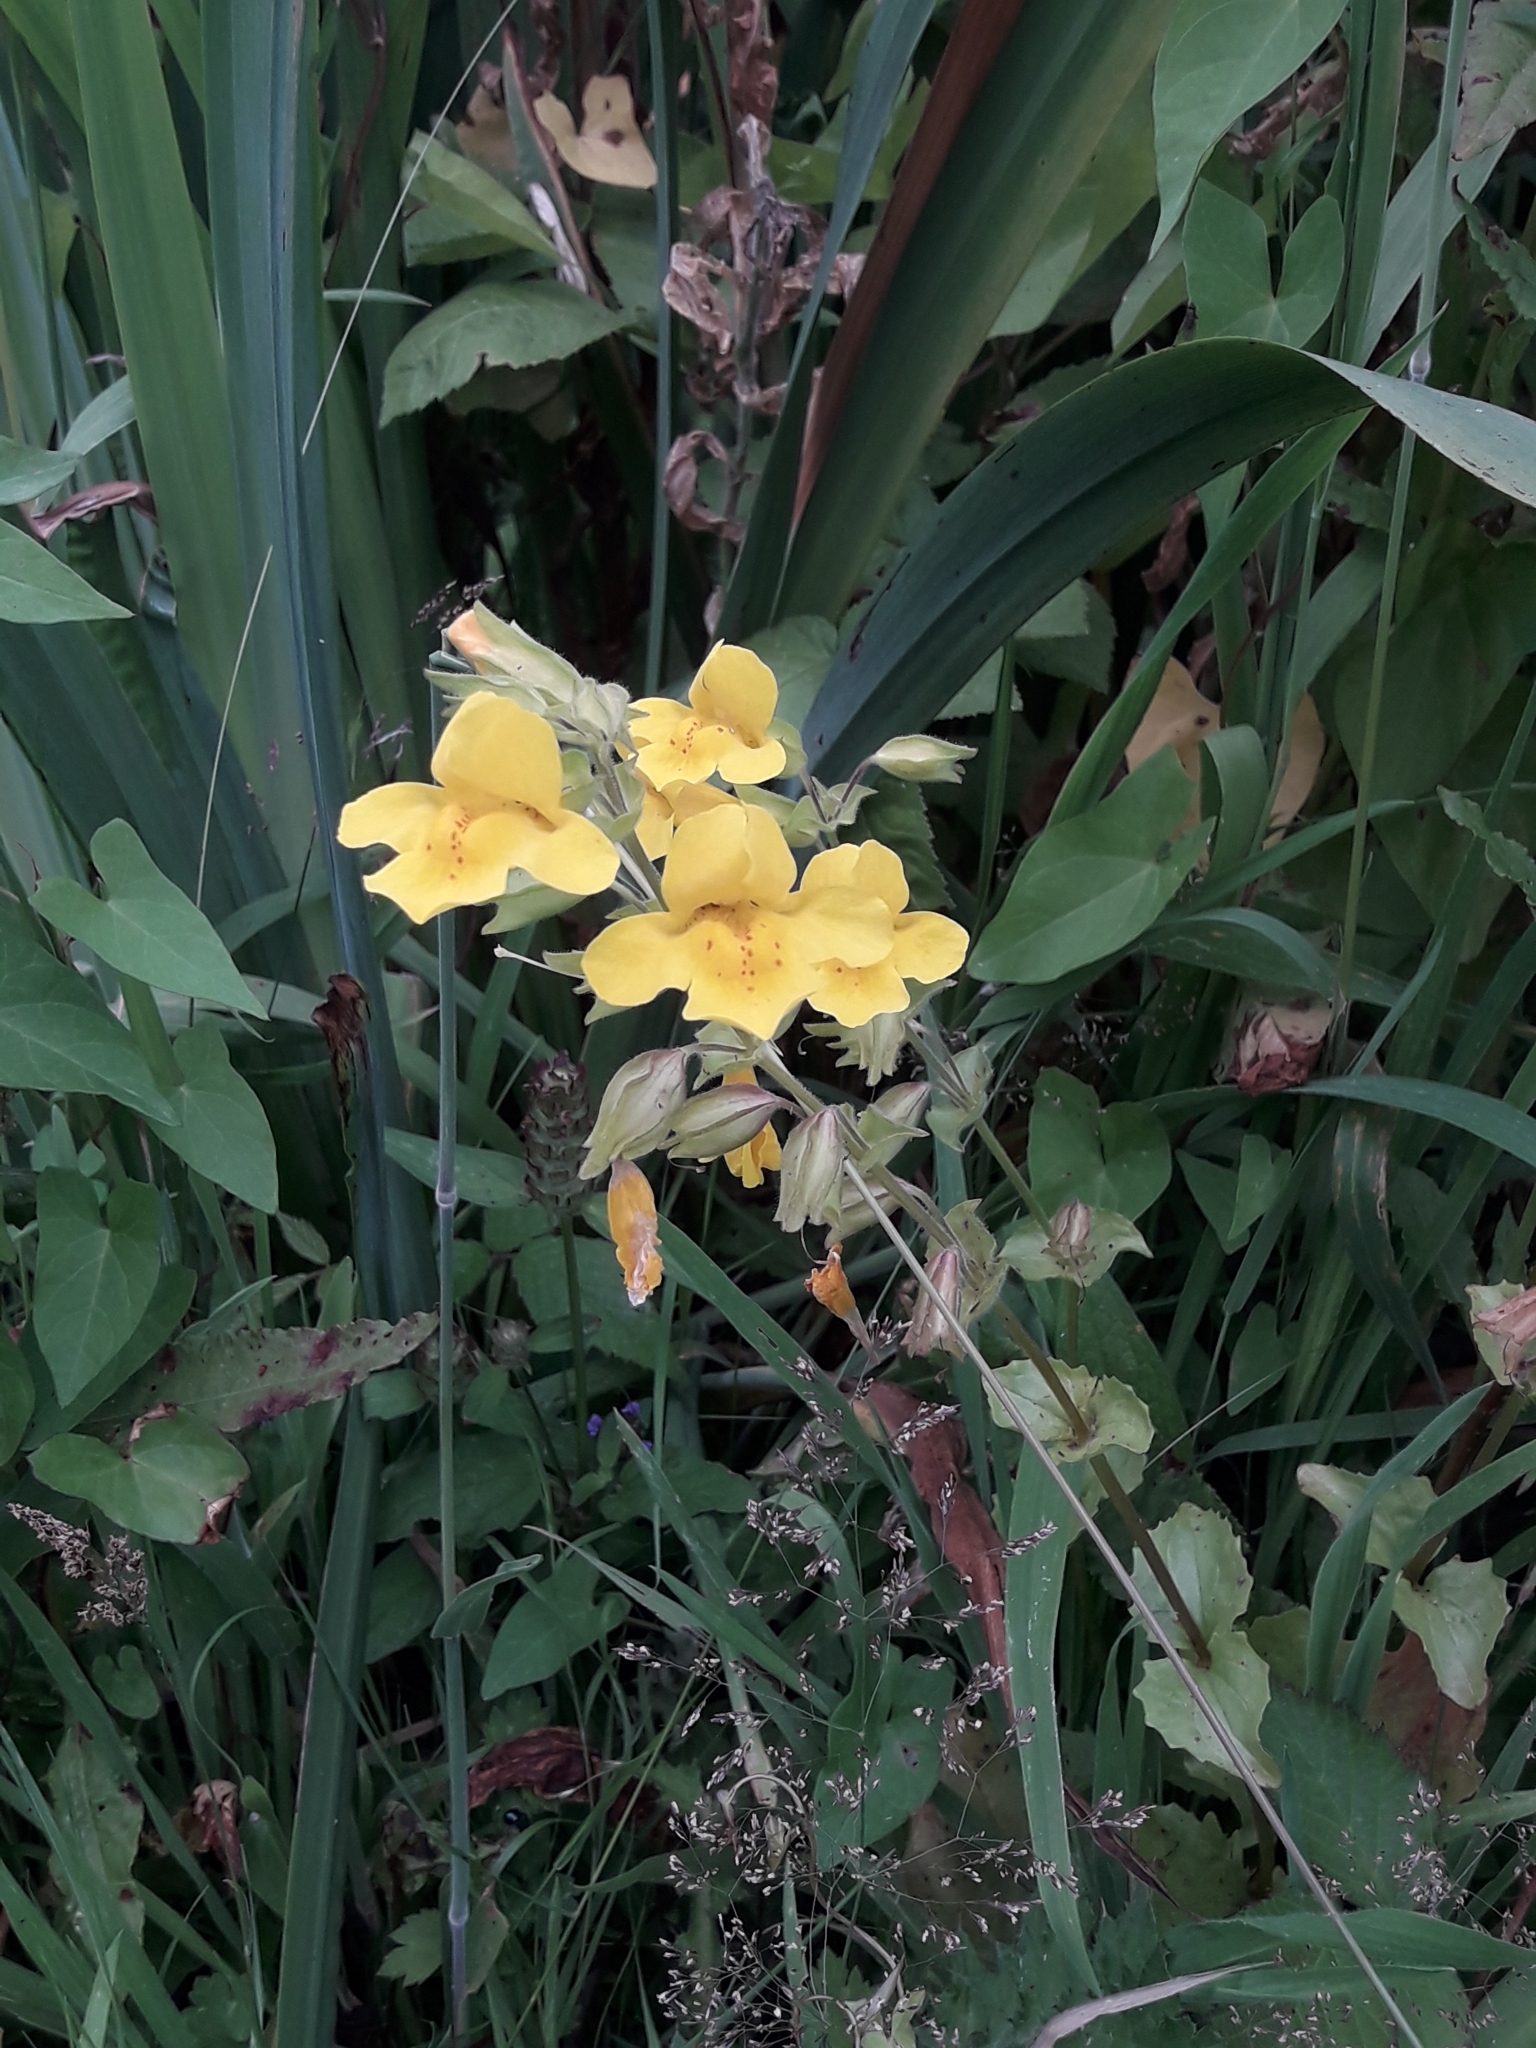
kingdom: Plantae
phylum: Tracheophyta
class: Magnoliopsida
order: Lamiales
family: Phrymaceae
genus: Erythranthe
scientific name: Erythranthe guttata
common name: Monkeyflower
